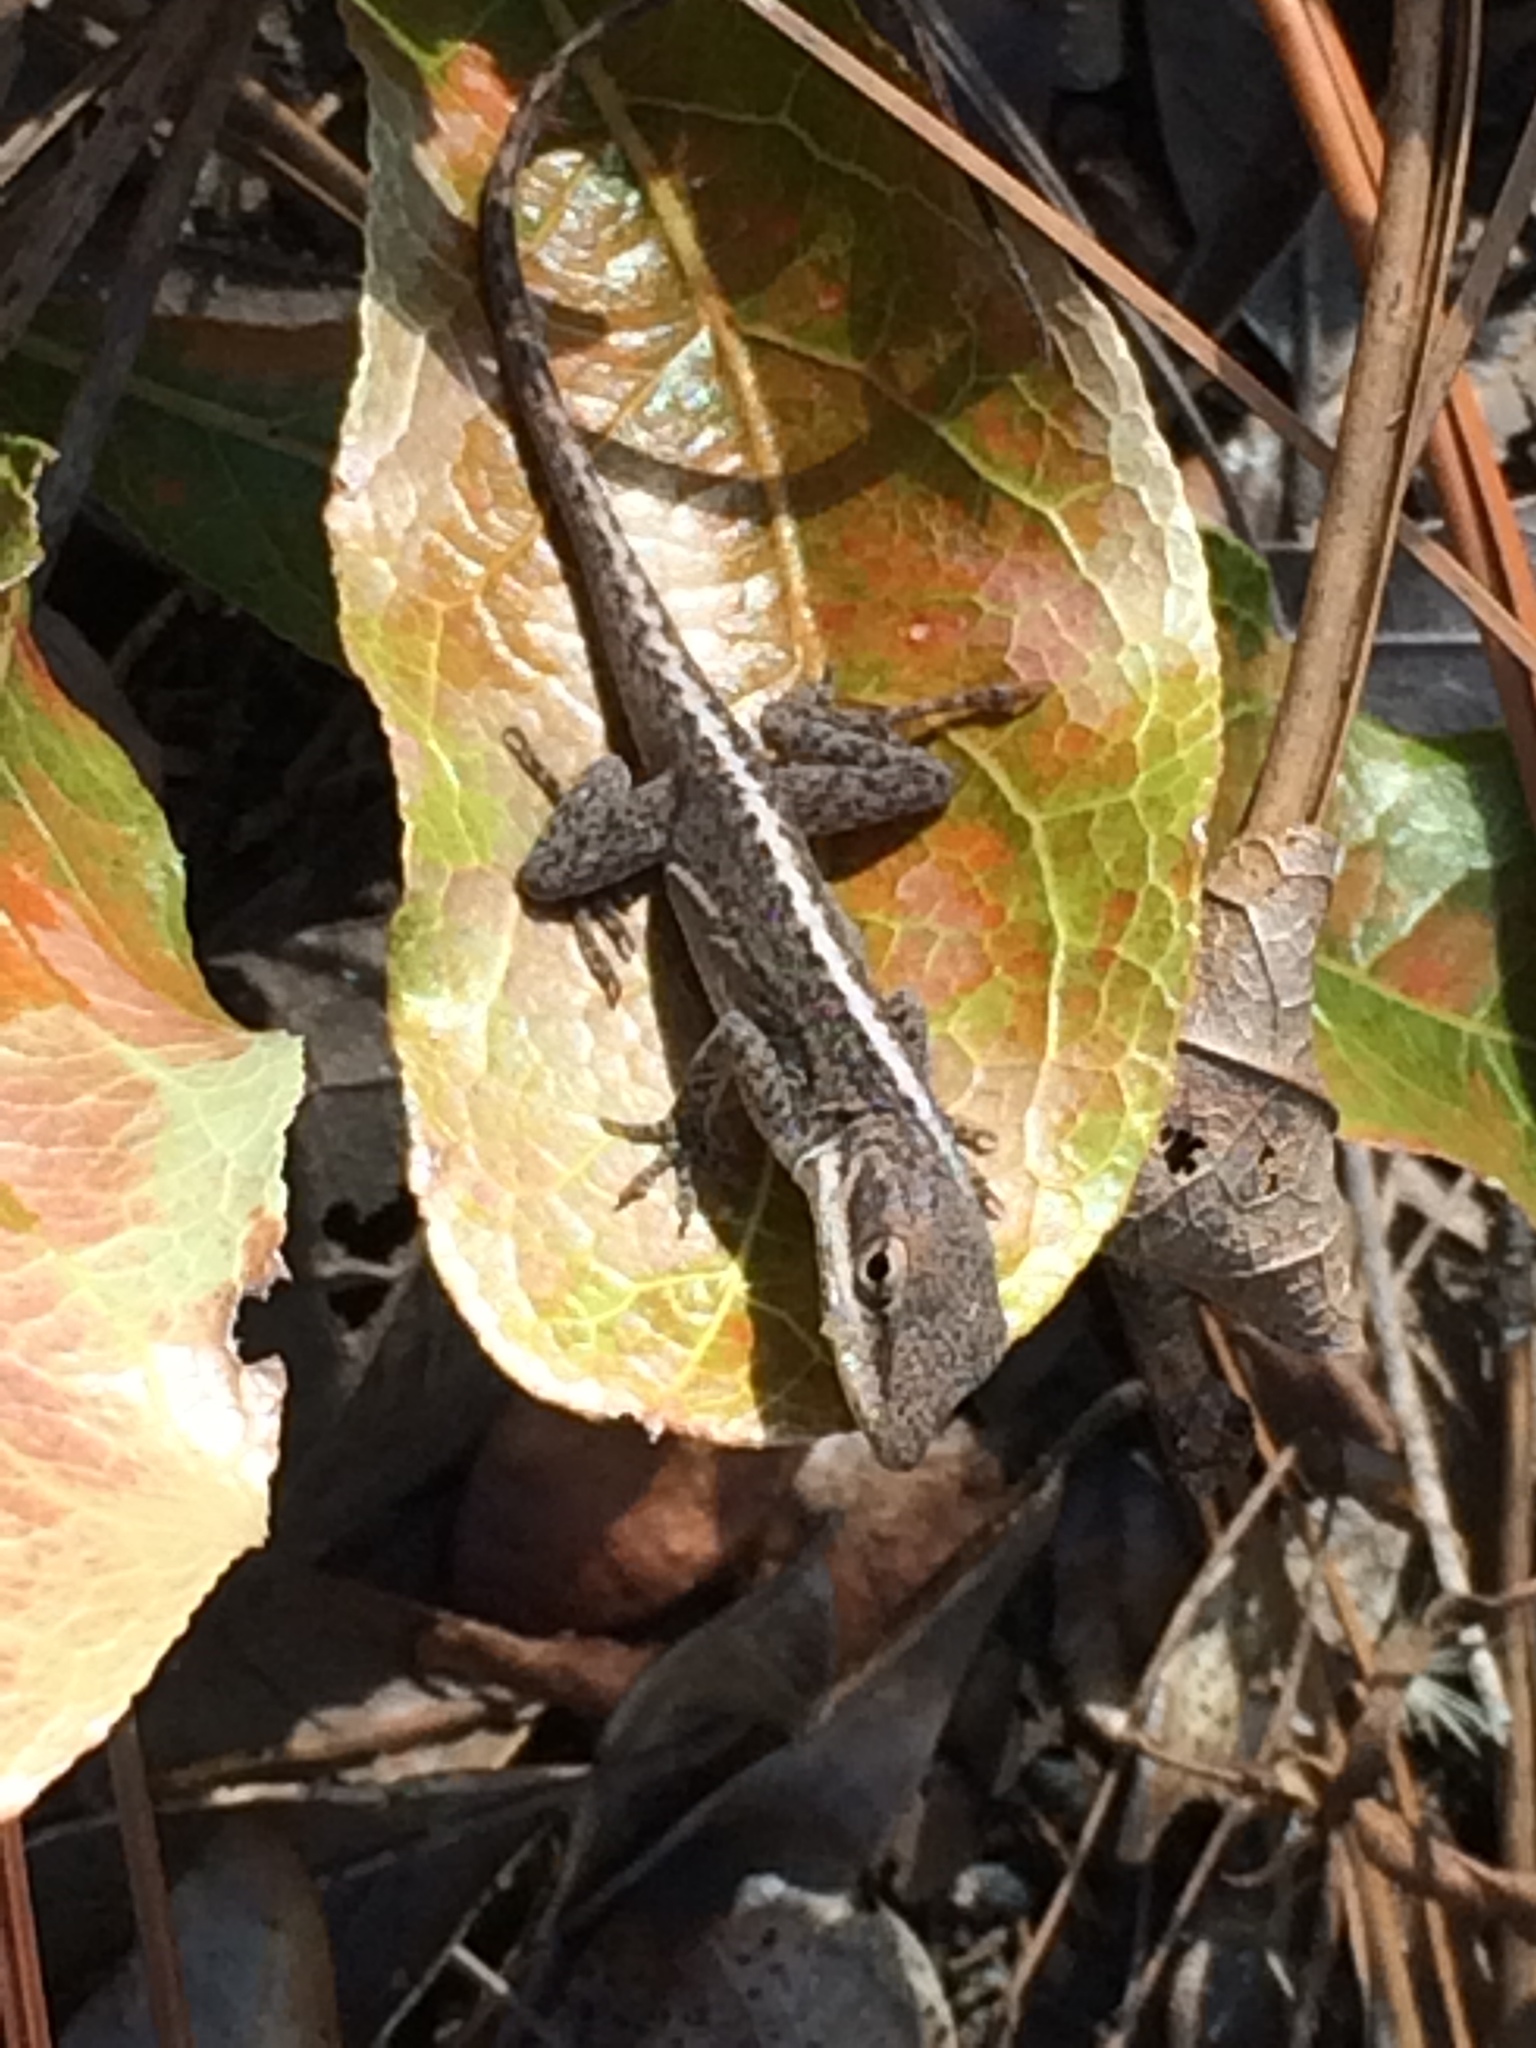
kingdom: Animalia
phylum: Chordata
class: Squamata
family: Dactyloidae
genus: Anolis
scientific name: Anolis carolinensis
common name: Green anole
